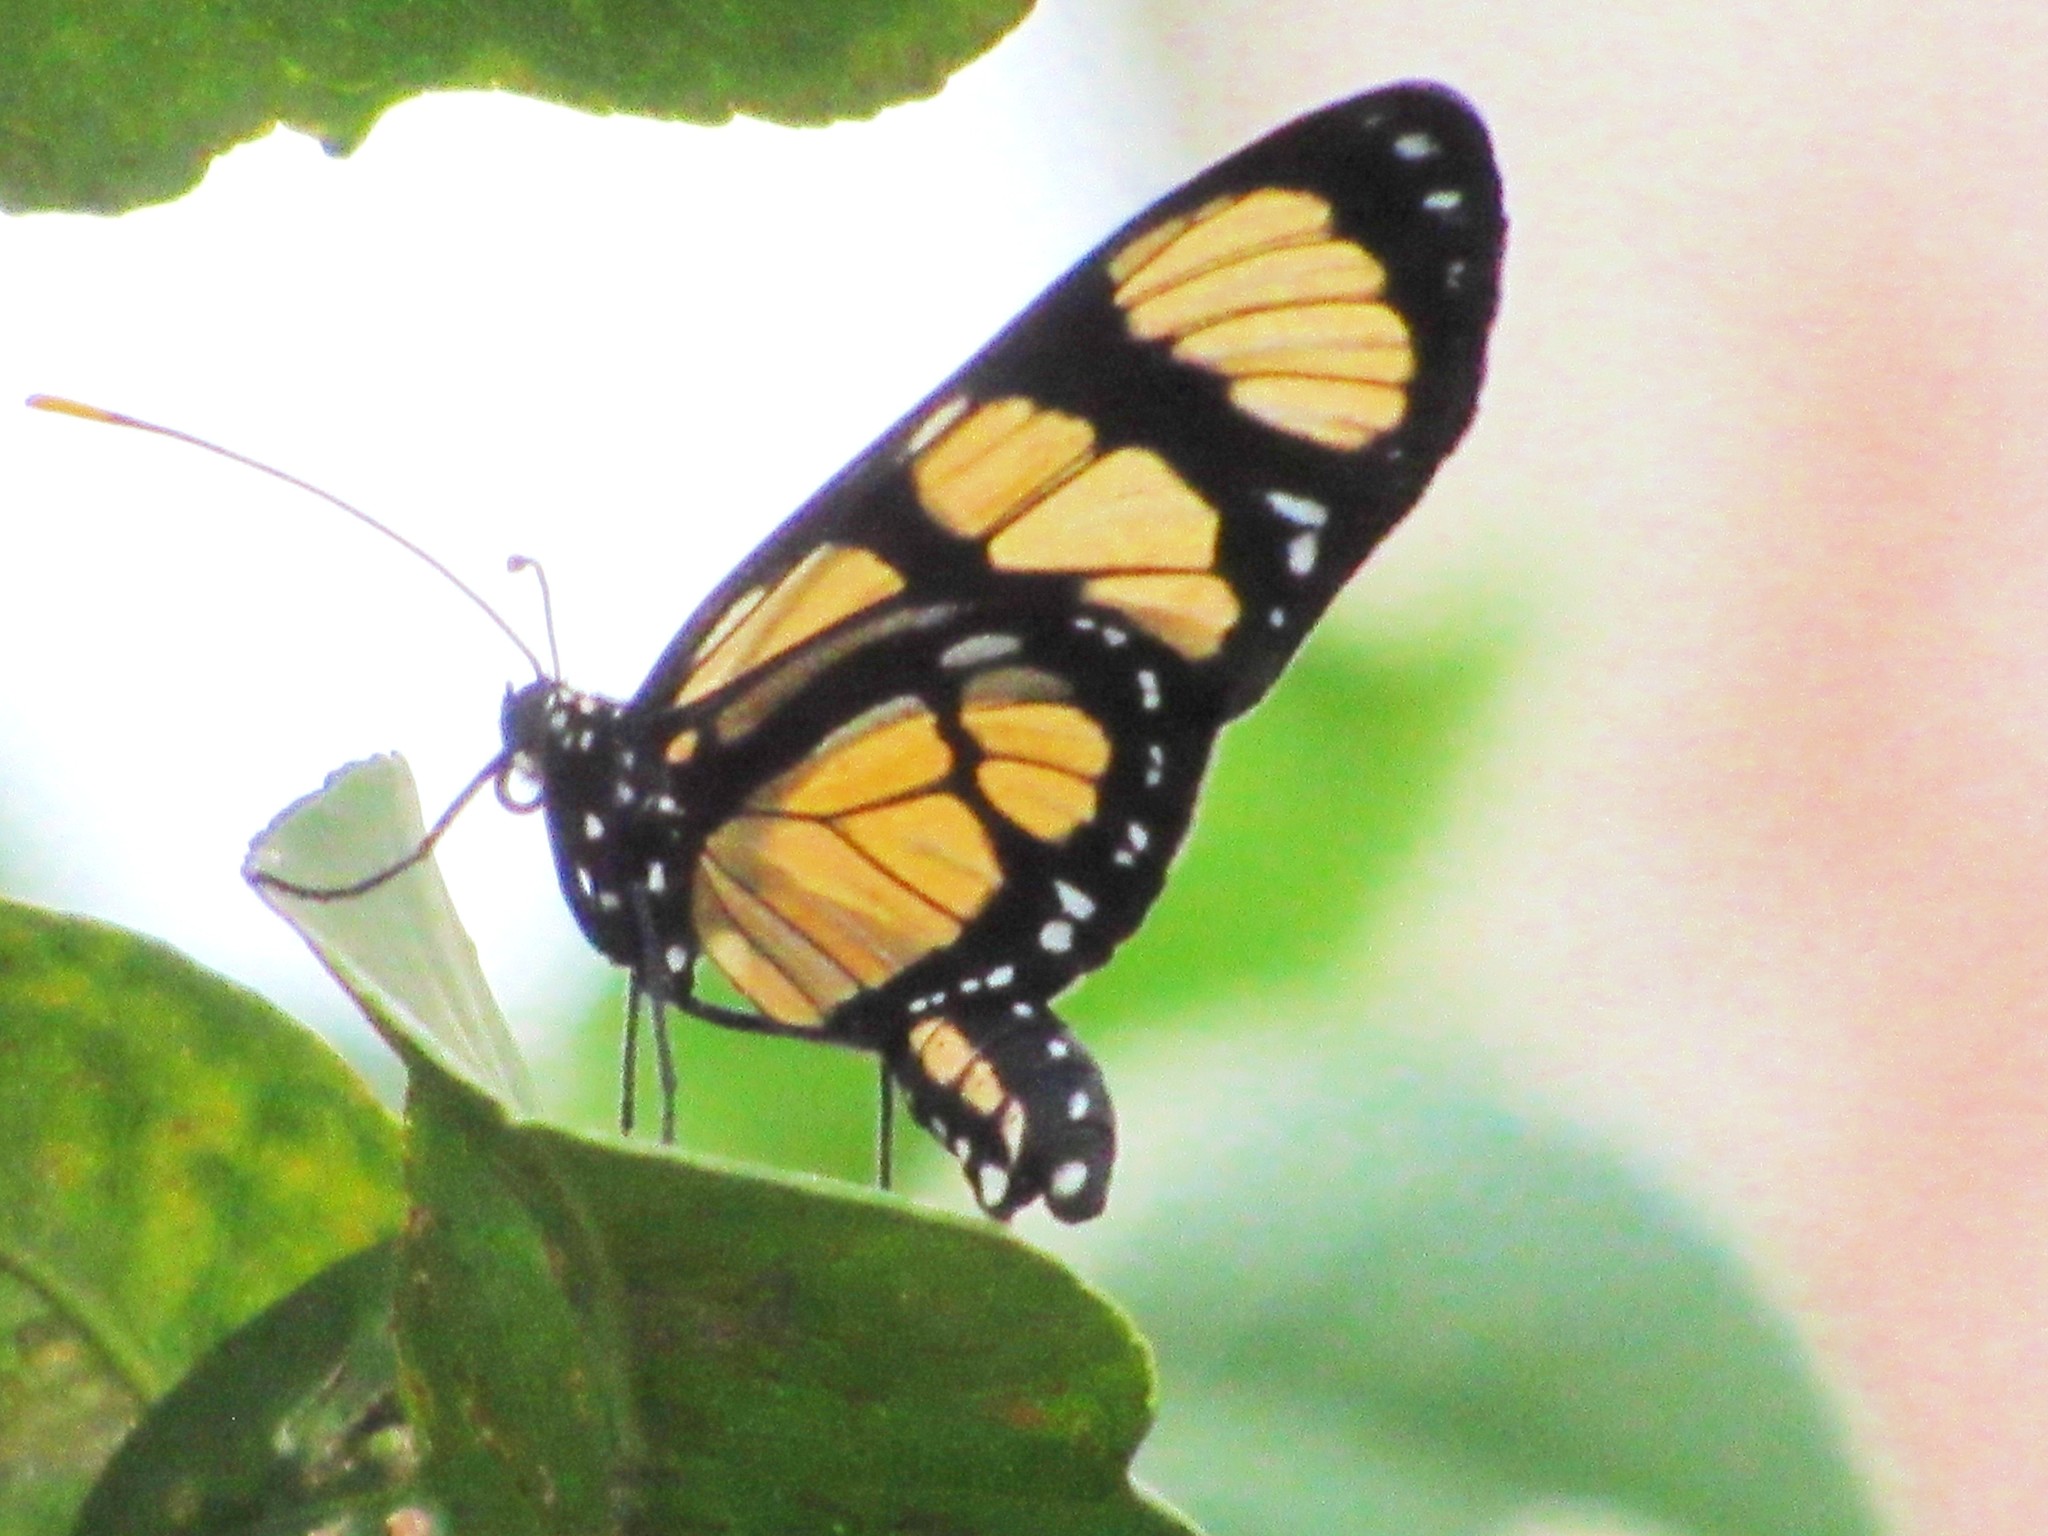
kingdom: Animalia
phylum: Arthropoda
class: Insecta
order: Lepidoptera
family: Nymphalidae
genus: Methona
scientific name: Methona themisto
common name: Themisto amberwing
